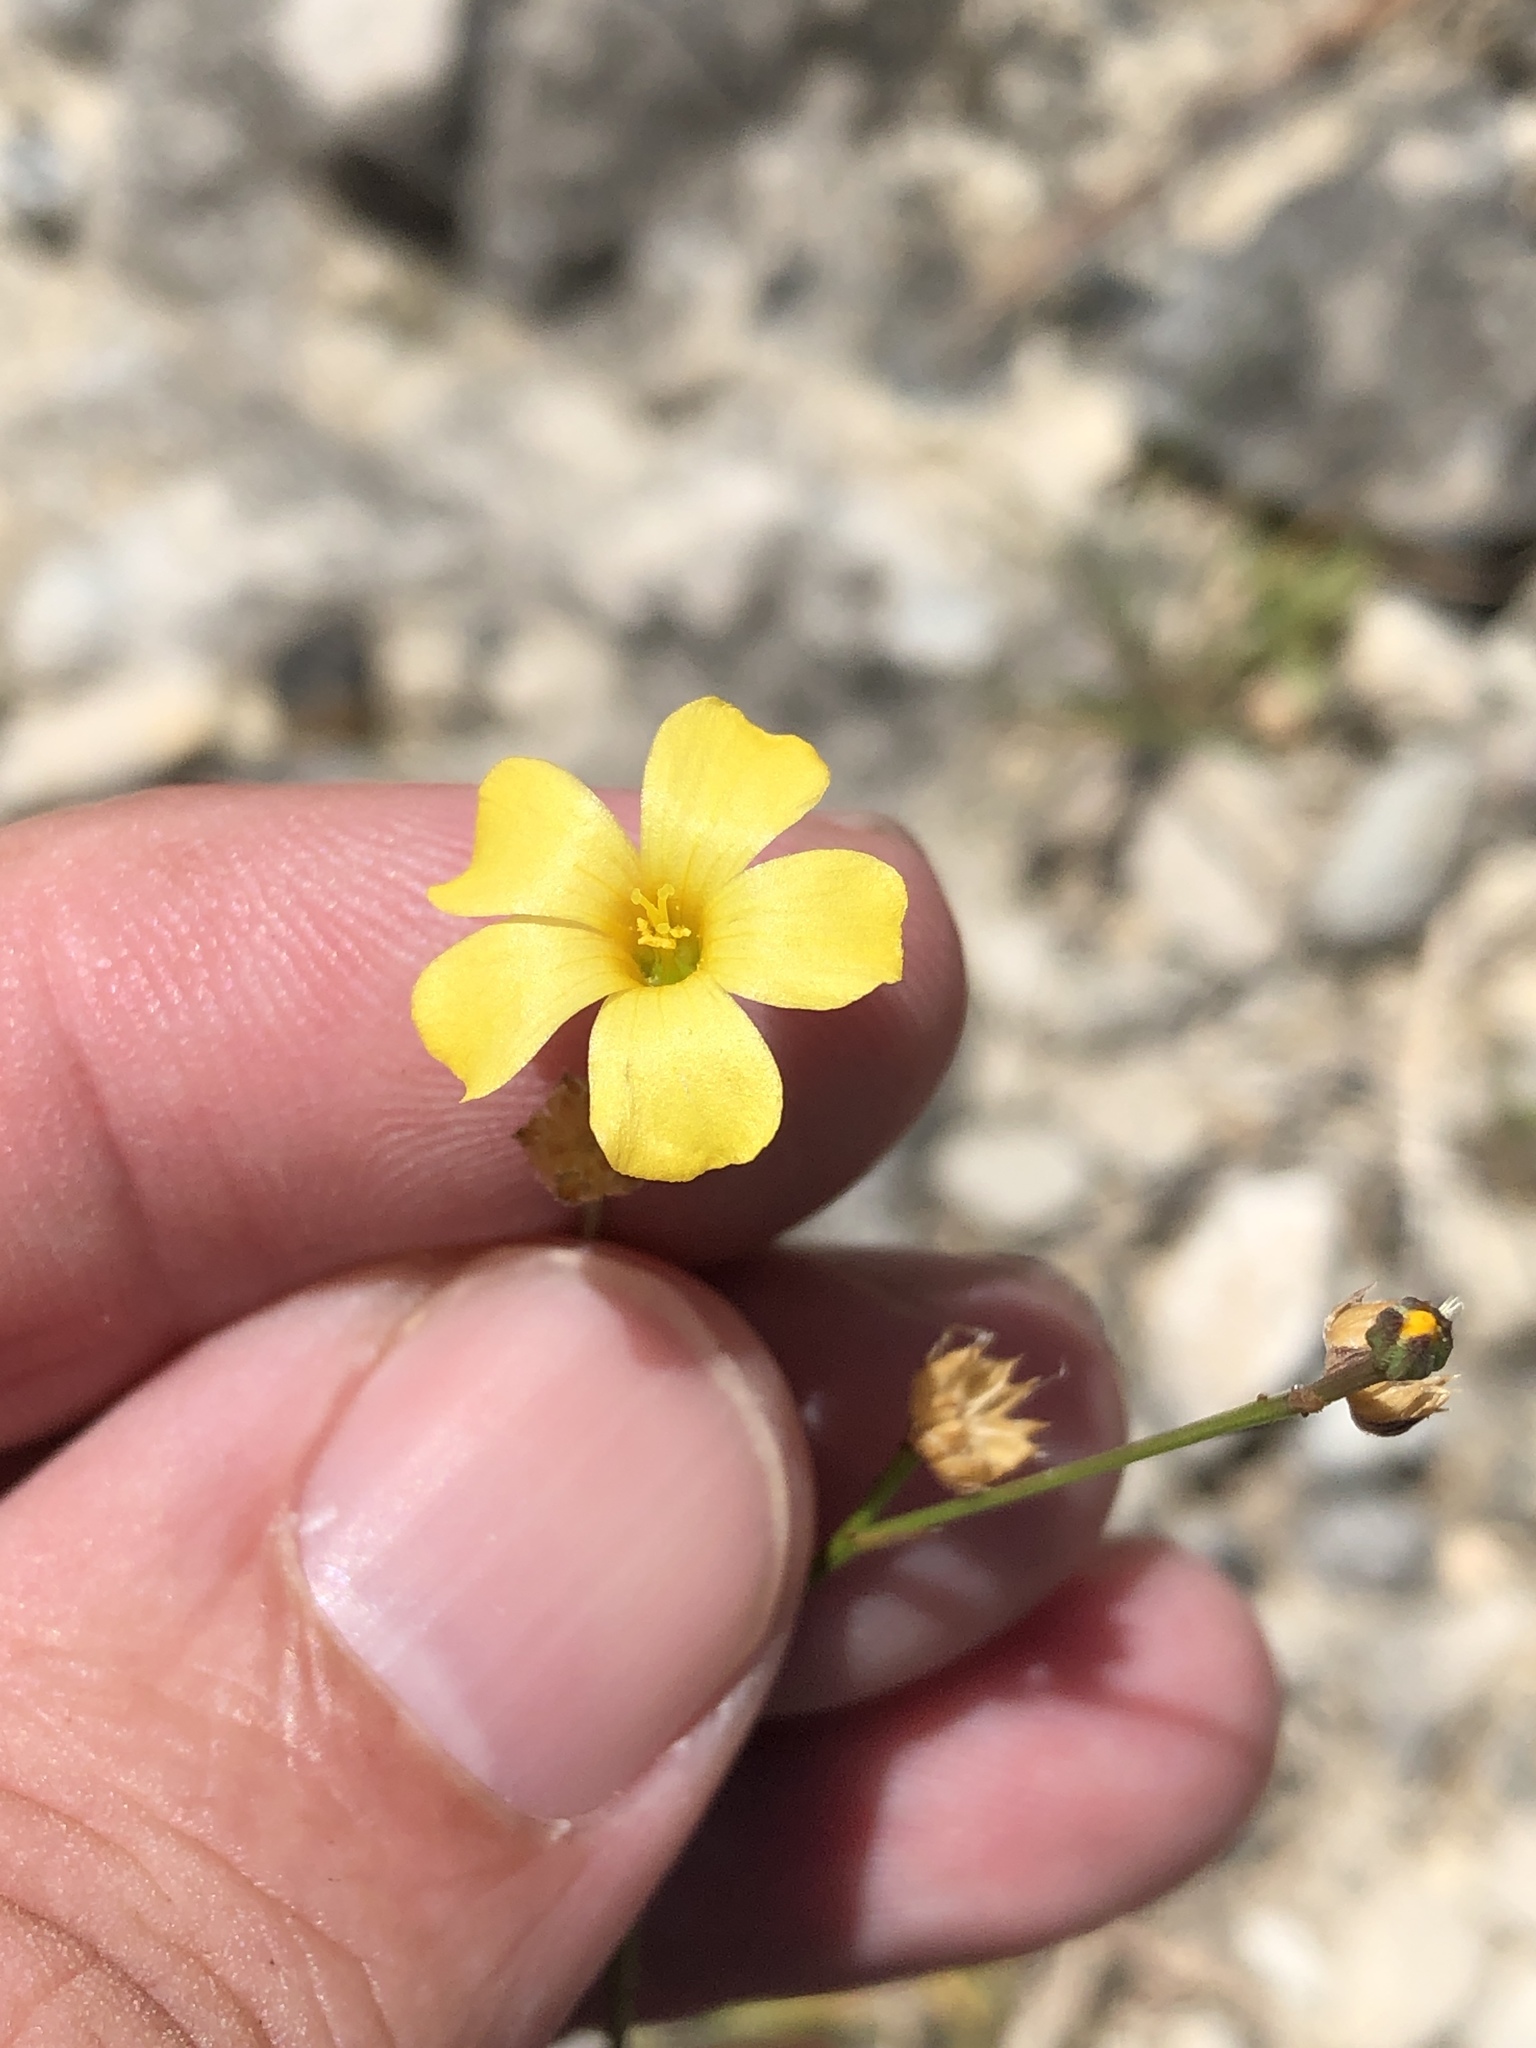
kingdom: Plantae
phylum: Tracheophyta
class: Magnoliopsida
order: Malpighiales
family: Linaceae
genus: Linum
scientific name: Linum rupestre
